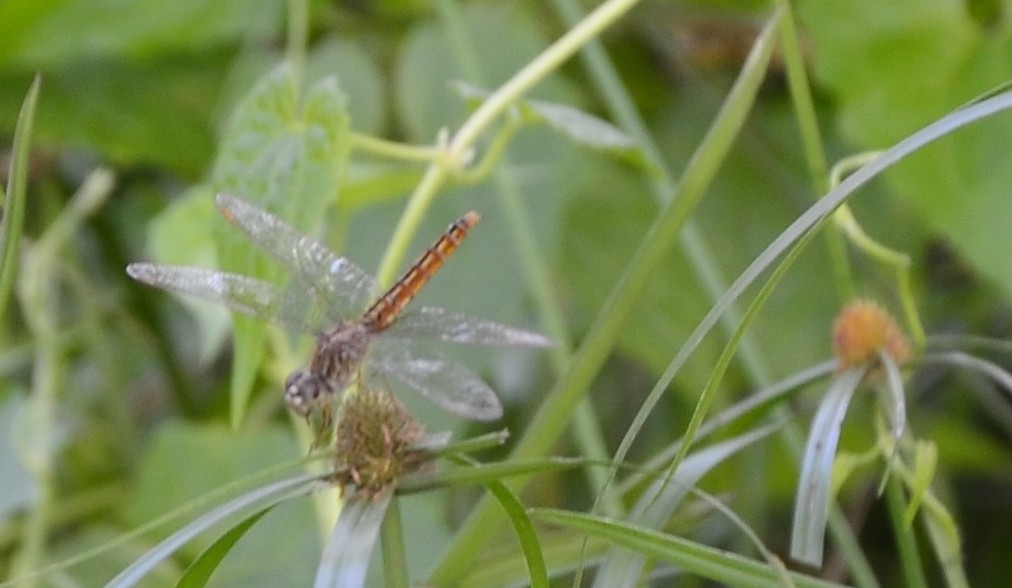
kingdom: Animalia
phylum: Arthropoda
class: Insecta
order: Odonata
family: Libellulidae
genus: Brachythemis
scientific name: Brachythemis contaminata
